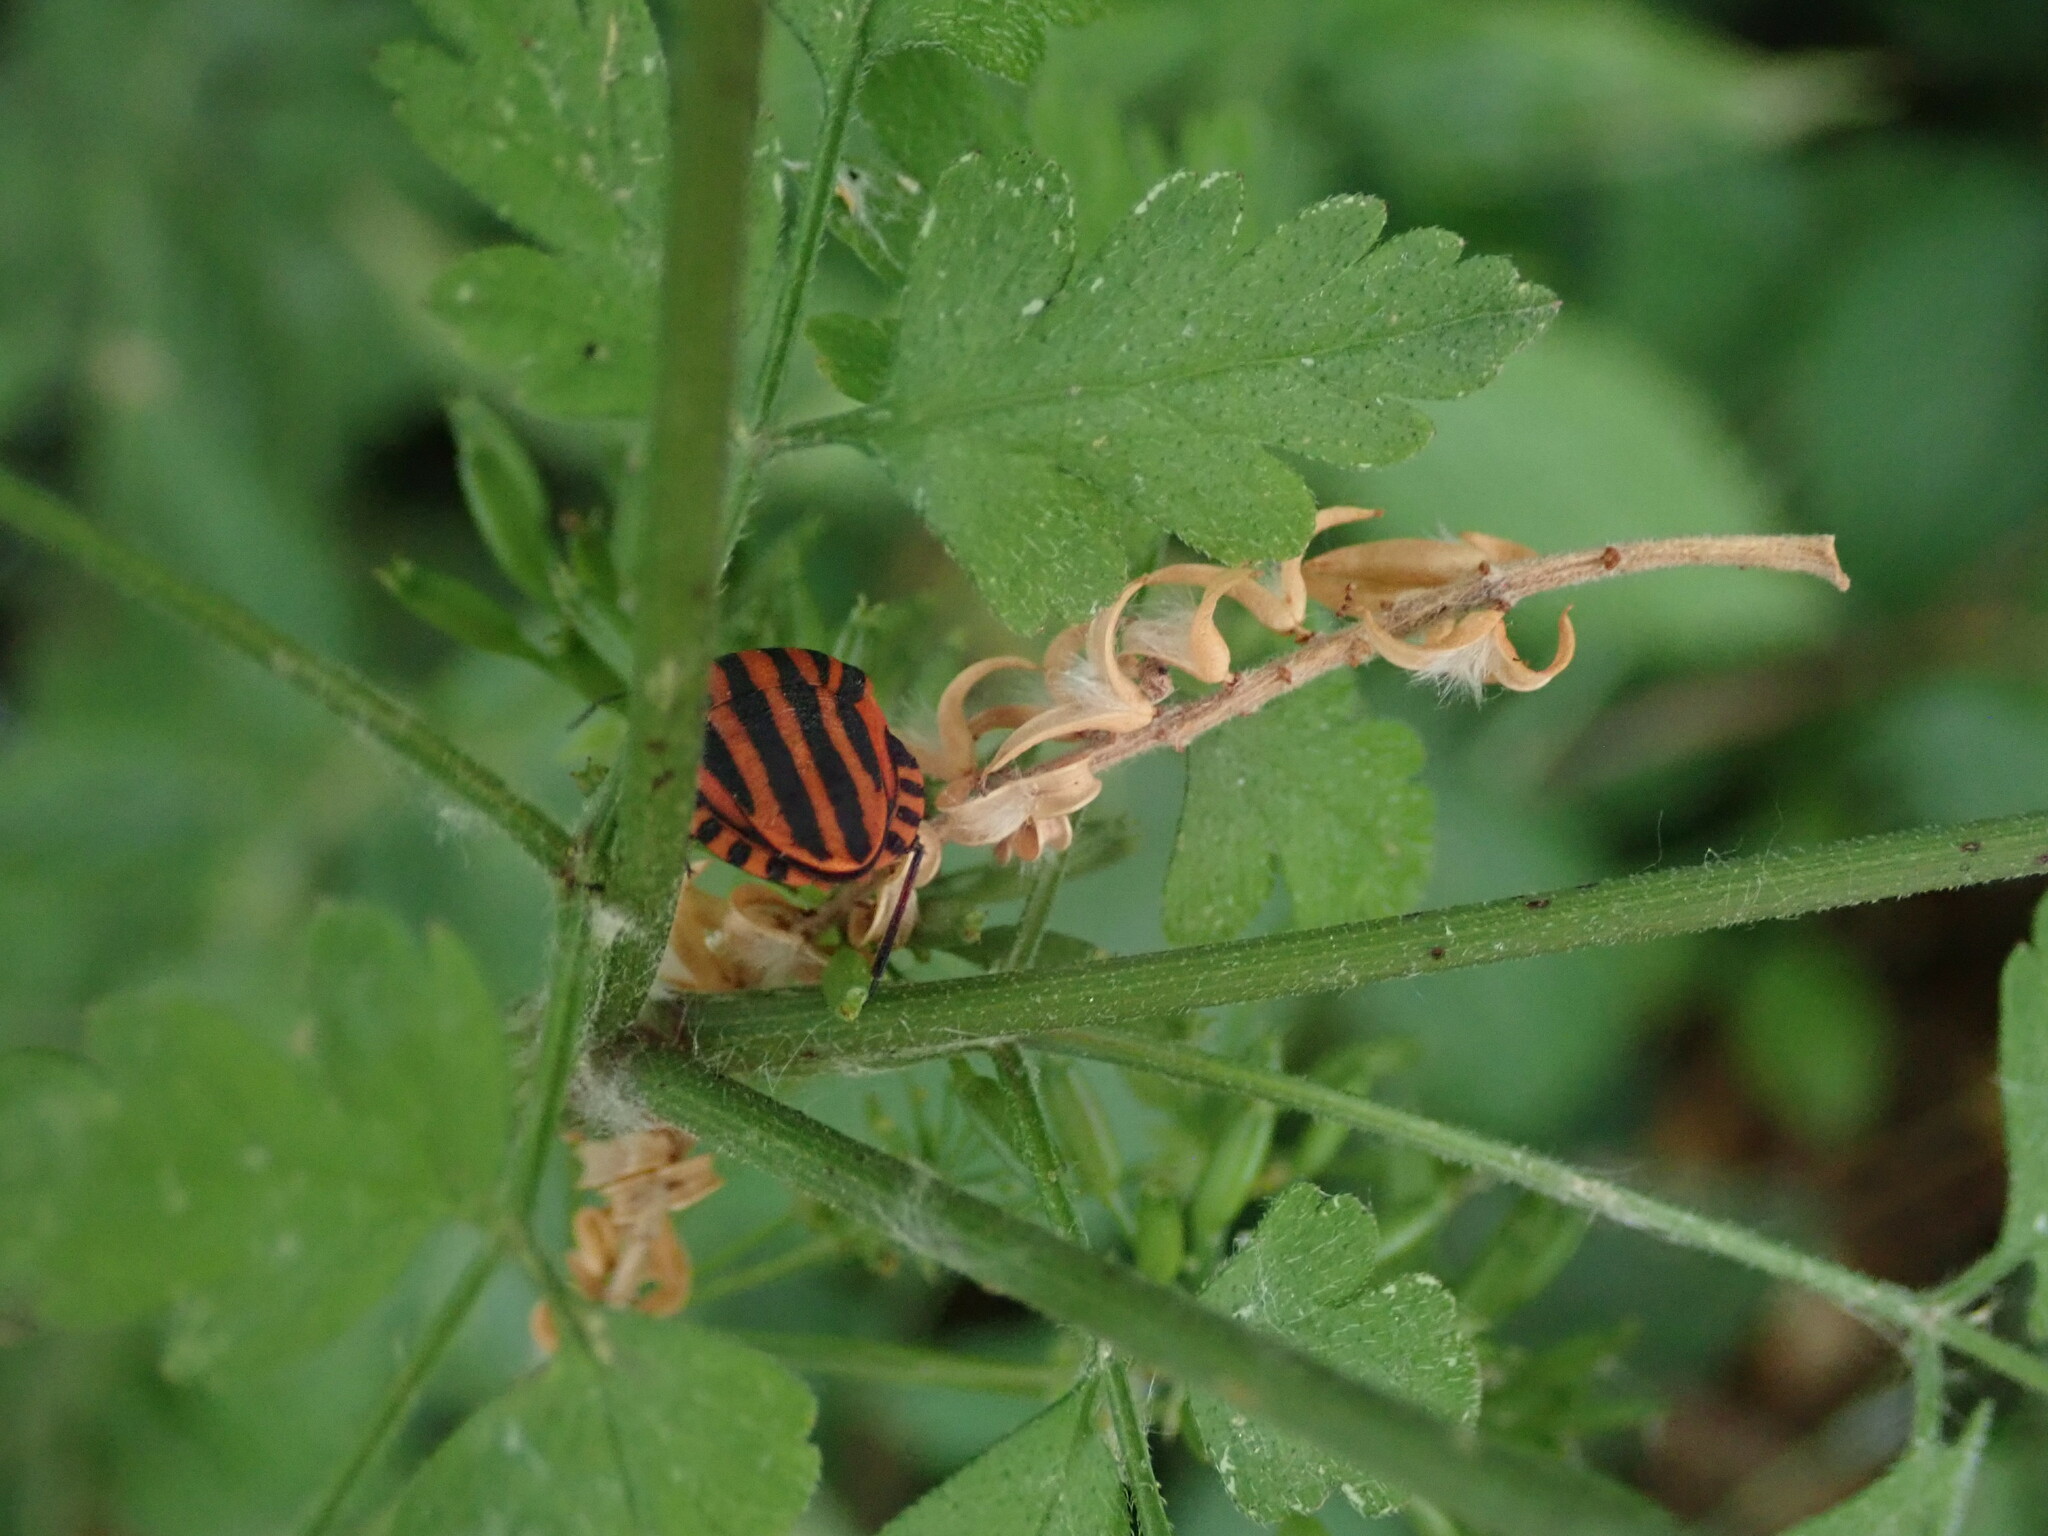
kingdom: Animalia
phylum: Arthropoda
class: Insecta
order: Hemiptera
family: Pentatomidae
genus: Graphosoma
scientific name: Graphosoma italicum
